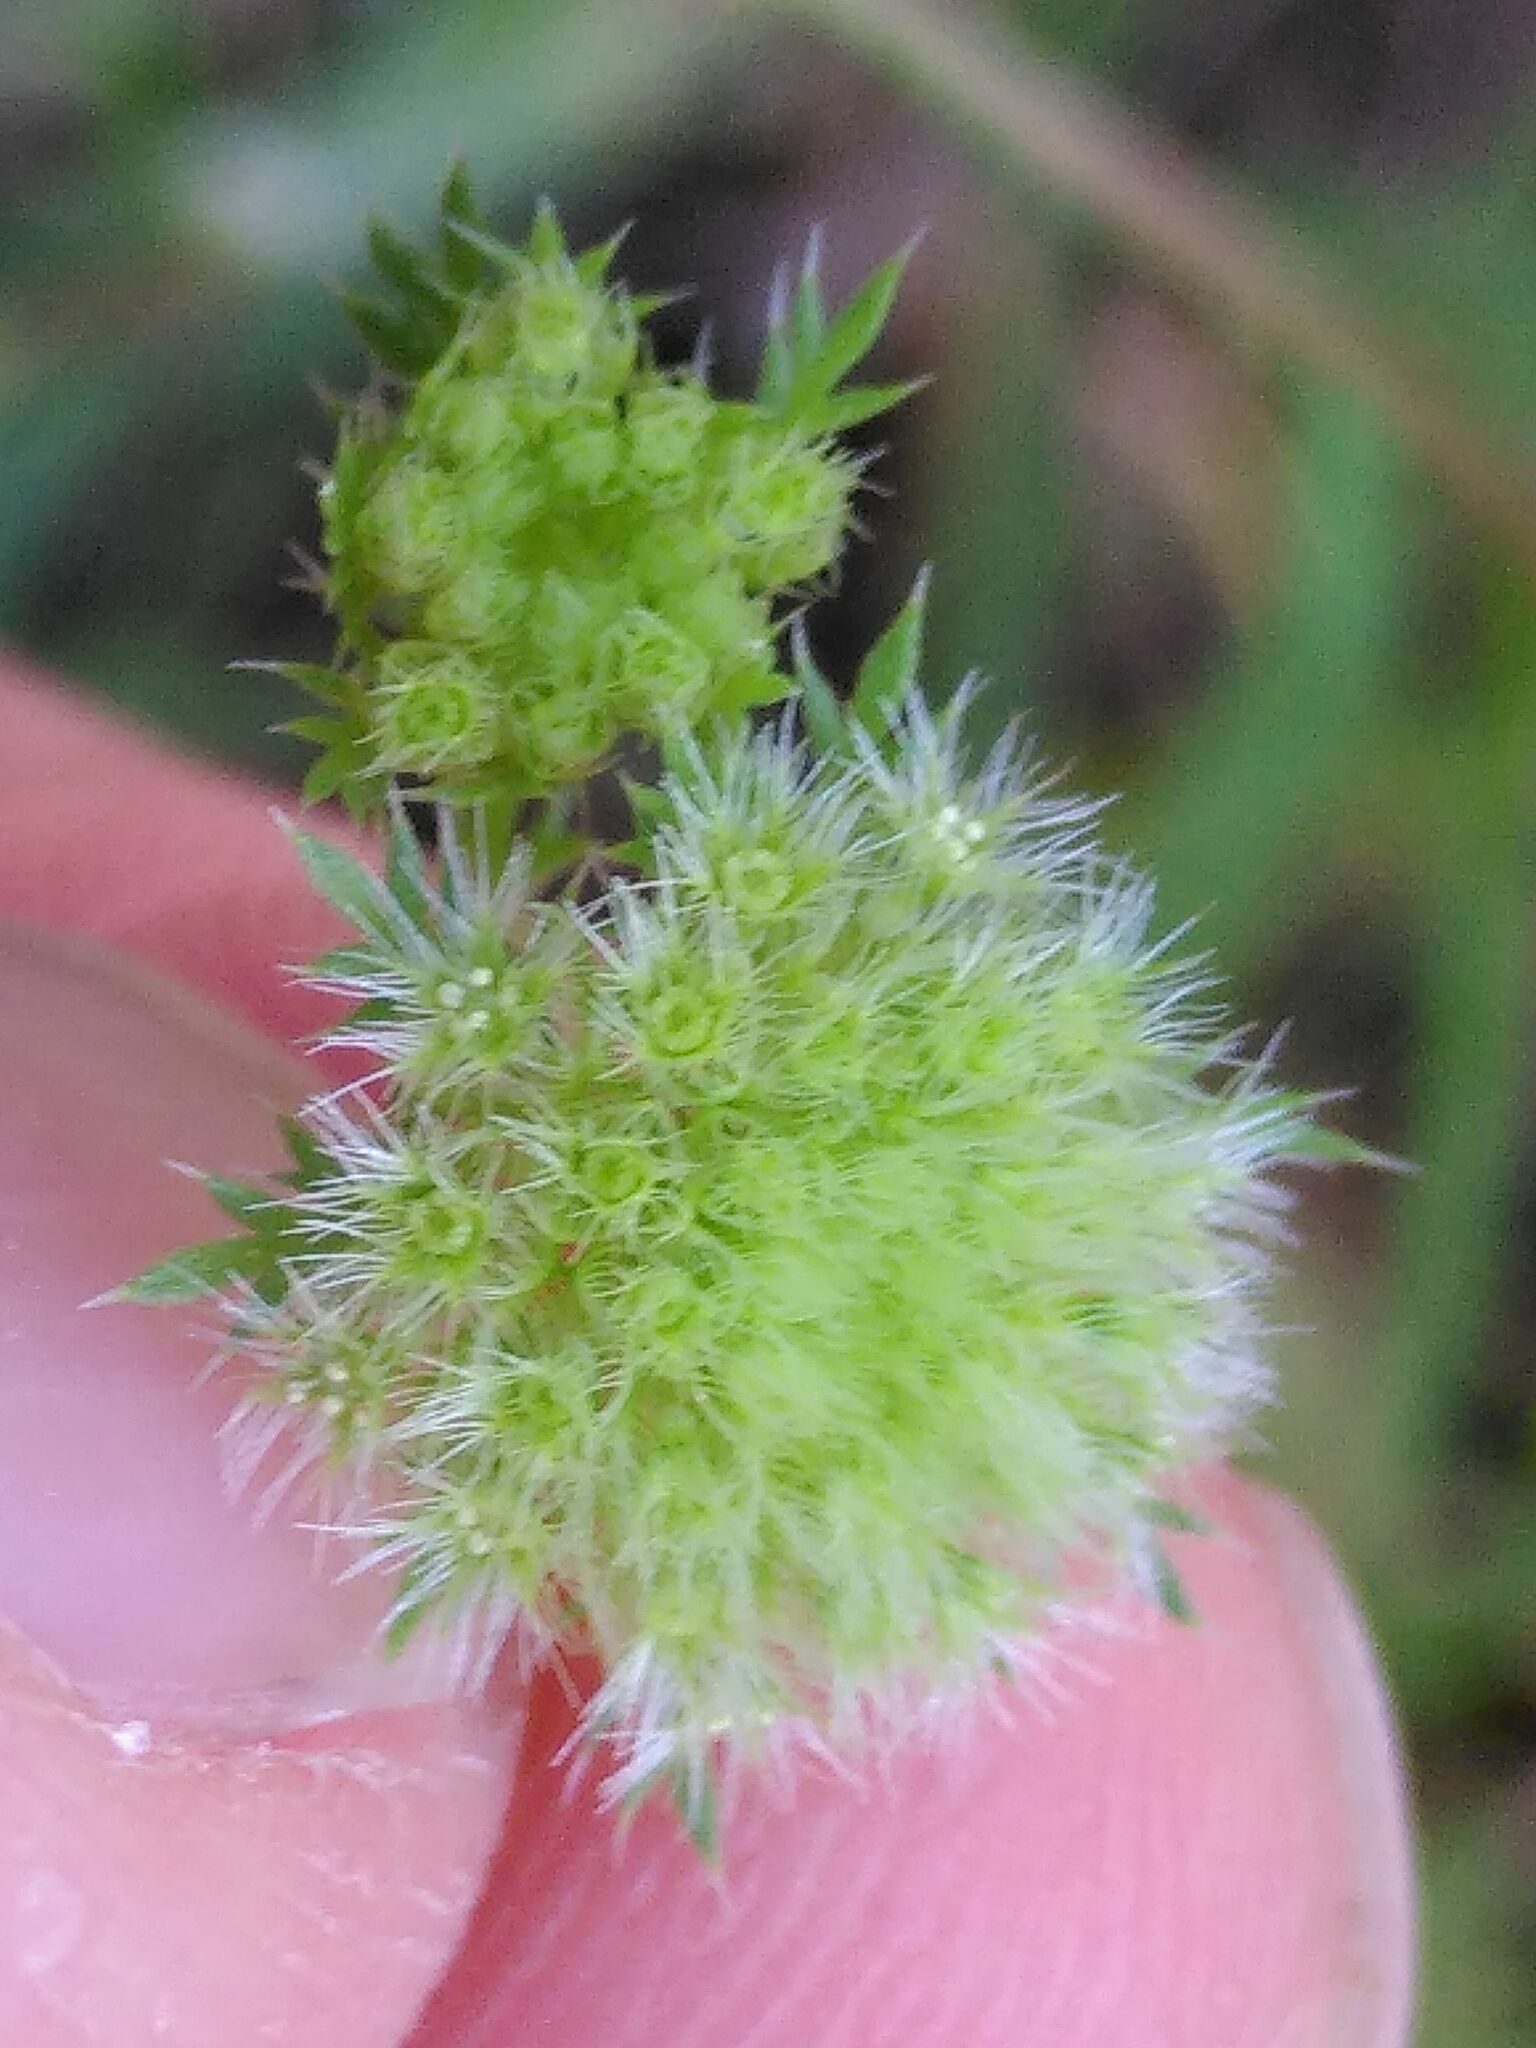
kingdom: Plantae
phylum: Tracheophyta
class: Magnoliopsida
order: Apiales
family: Apiaceae
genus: Lagoecia
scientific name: Lagoecia cuminoides
